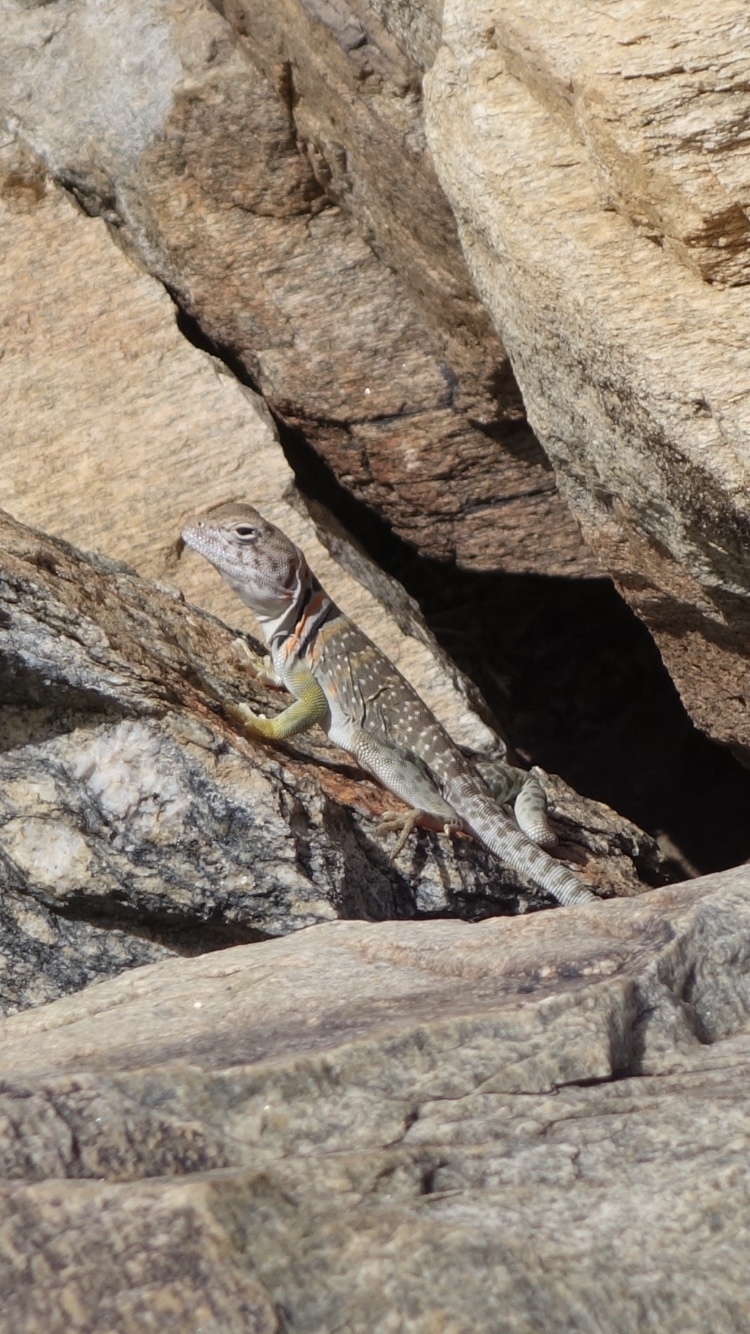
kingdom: Animalia
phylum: Chordata
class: Squamata
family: Crotaphytidae
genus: Crotaphytus
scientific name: Crotaphytus collaris
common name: Collared lizard
